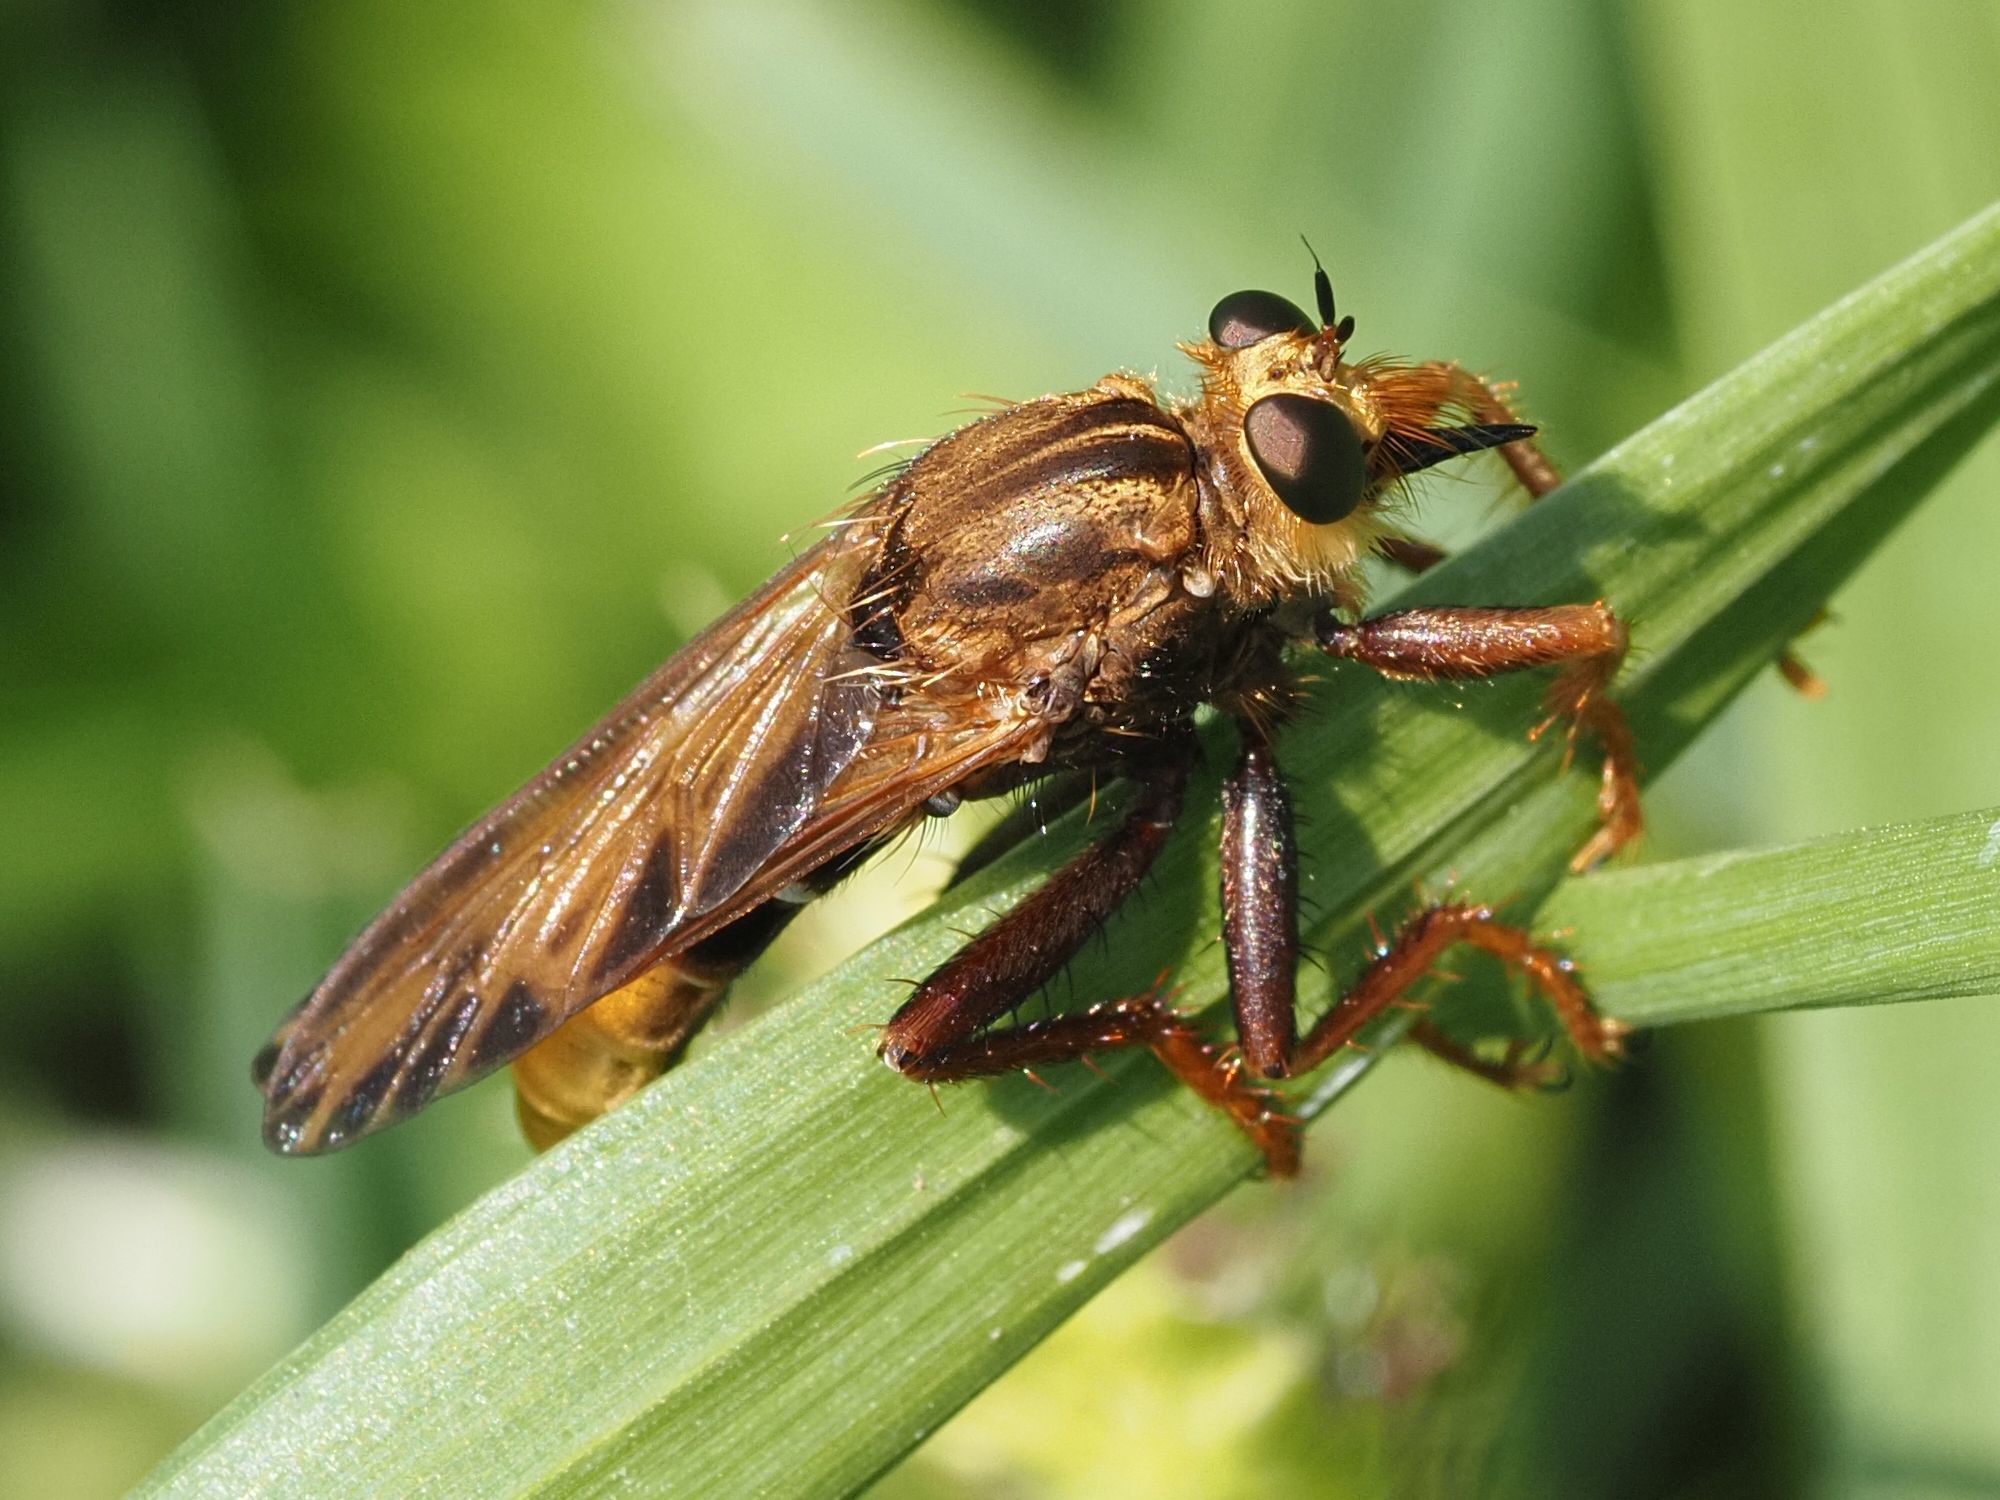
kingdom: Animalia
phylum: Arthropoda
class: Insecta
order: Diptera
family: Asilidae
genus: Asilus
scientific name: Asilus crabroniformis
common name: Hornet robberfly
